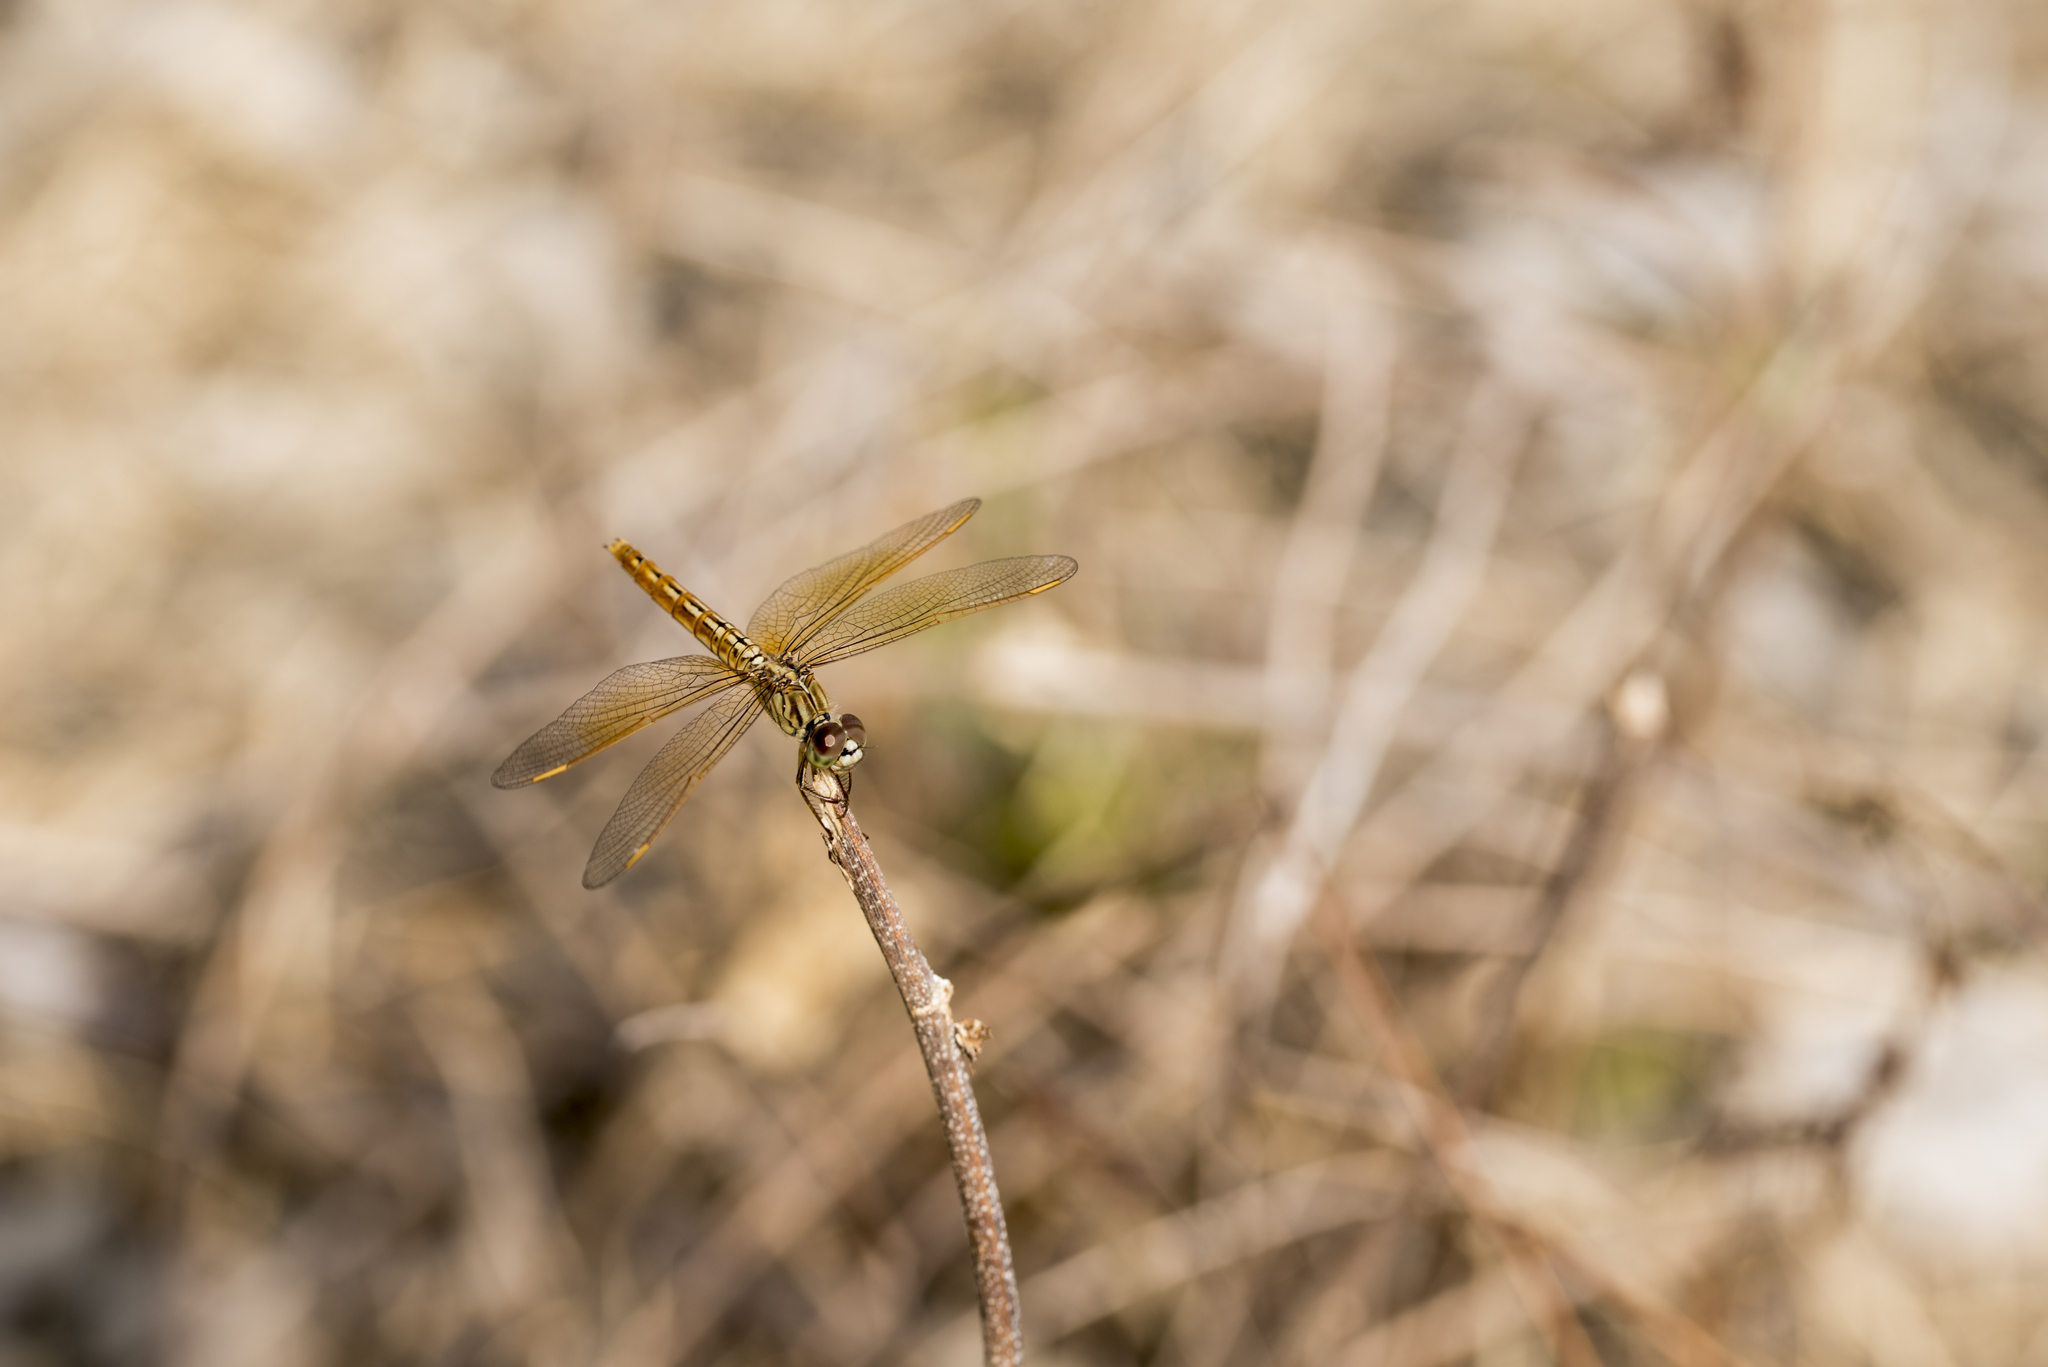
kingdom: Animalia
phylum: Arthropoda
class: Insecta
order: Odonata
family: Libellulidae
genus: Brachythemis
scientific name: Brachythemis contaminata
